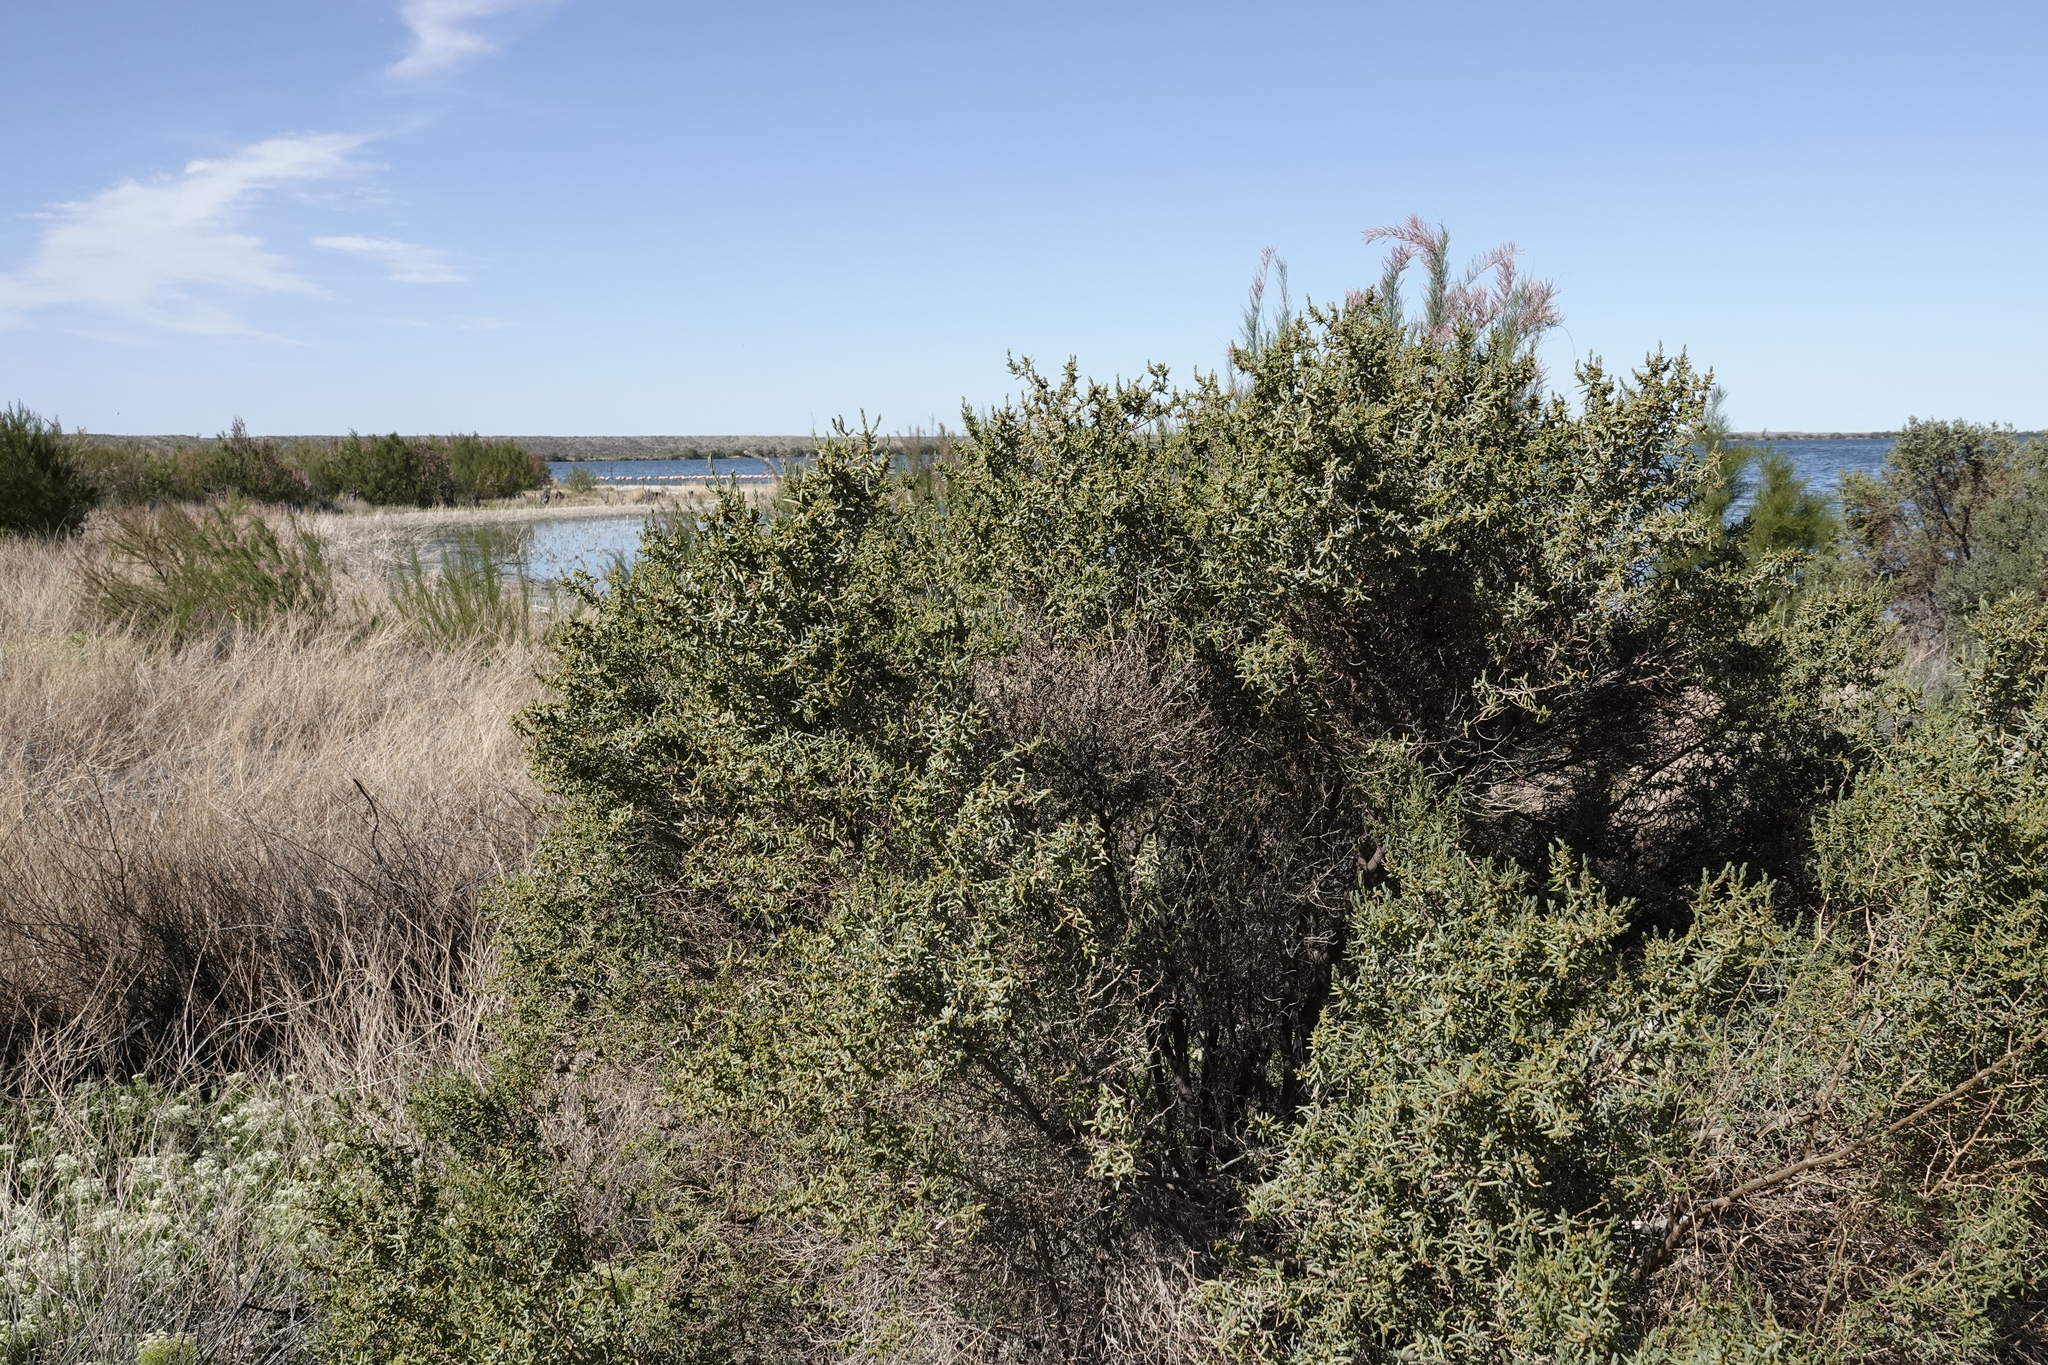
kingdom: Plantae
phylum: Tracheophyta
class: Magnoliopsida
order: Caryophyllales
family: Amaranthaceae
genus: Suaeda
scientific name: Suaeda divaricata
